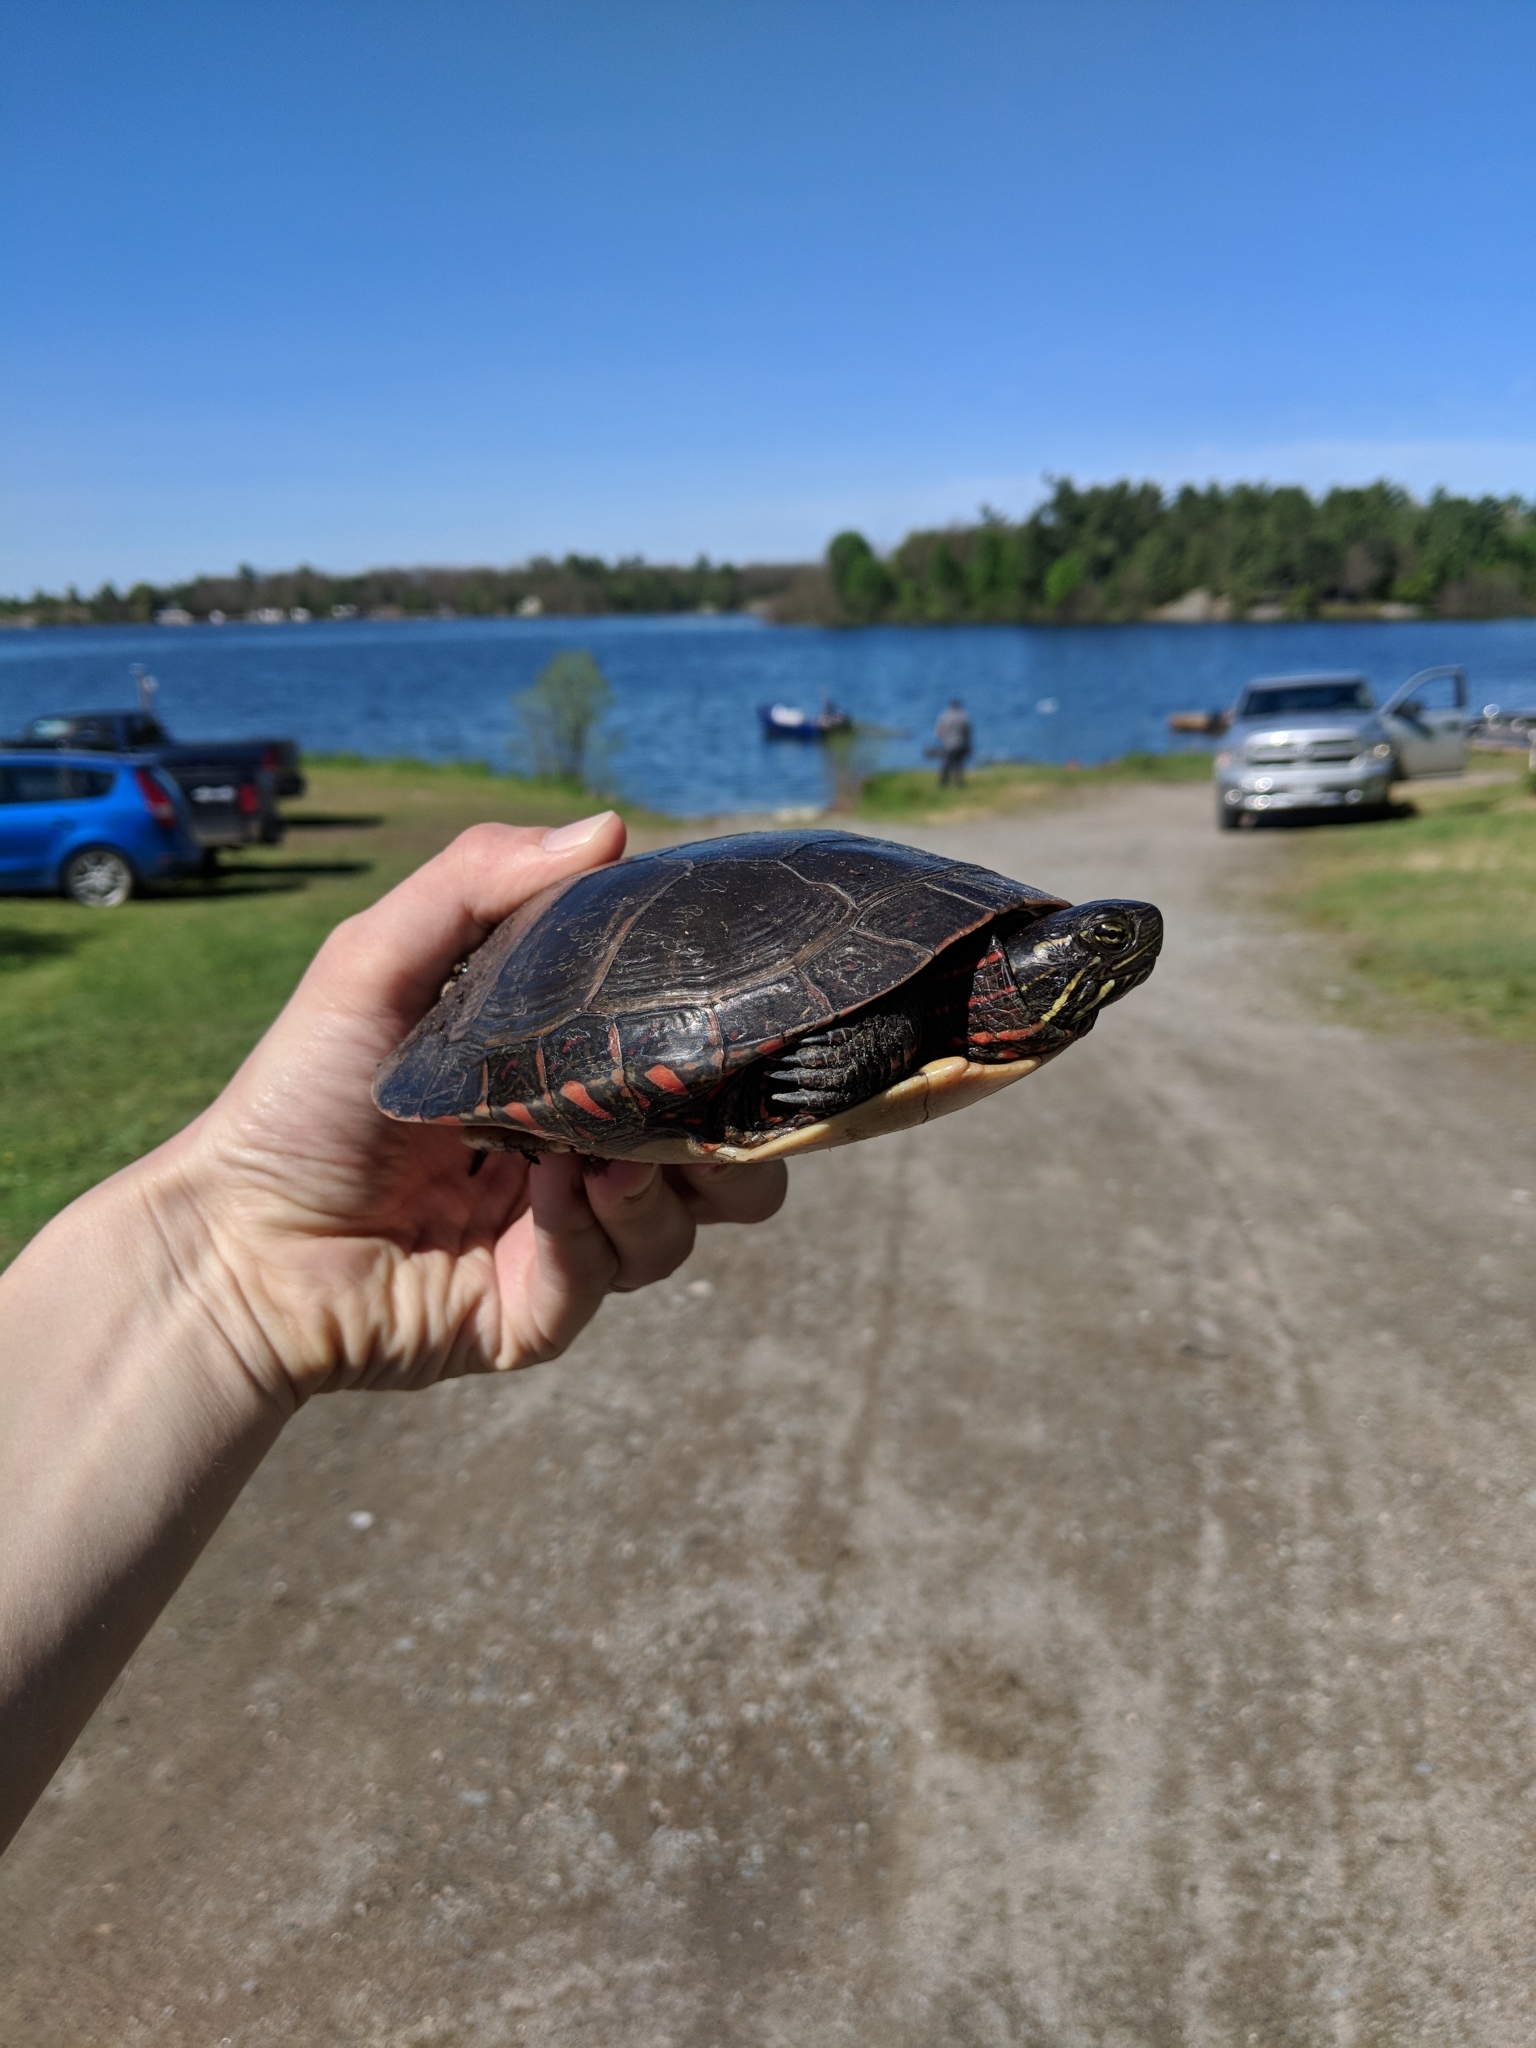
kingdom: Animalia
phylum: Chordata
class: Testudines
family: Emydidae
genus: Chrysemys
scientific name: Chrysemys picta
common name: Painted turtle
